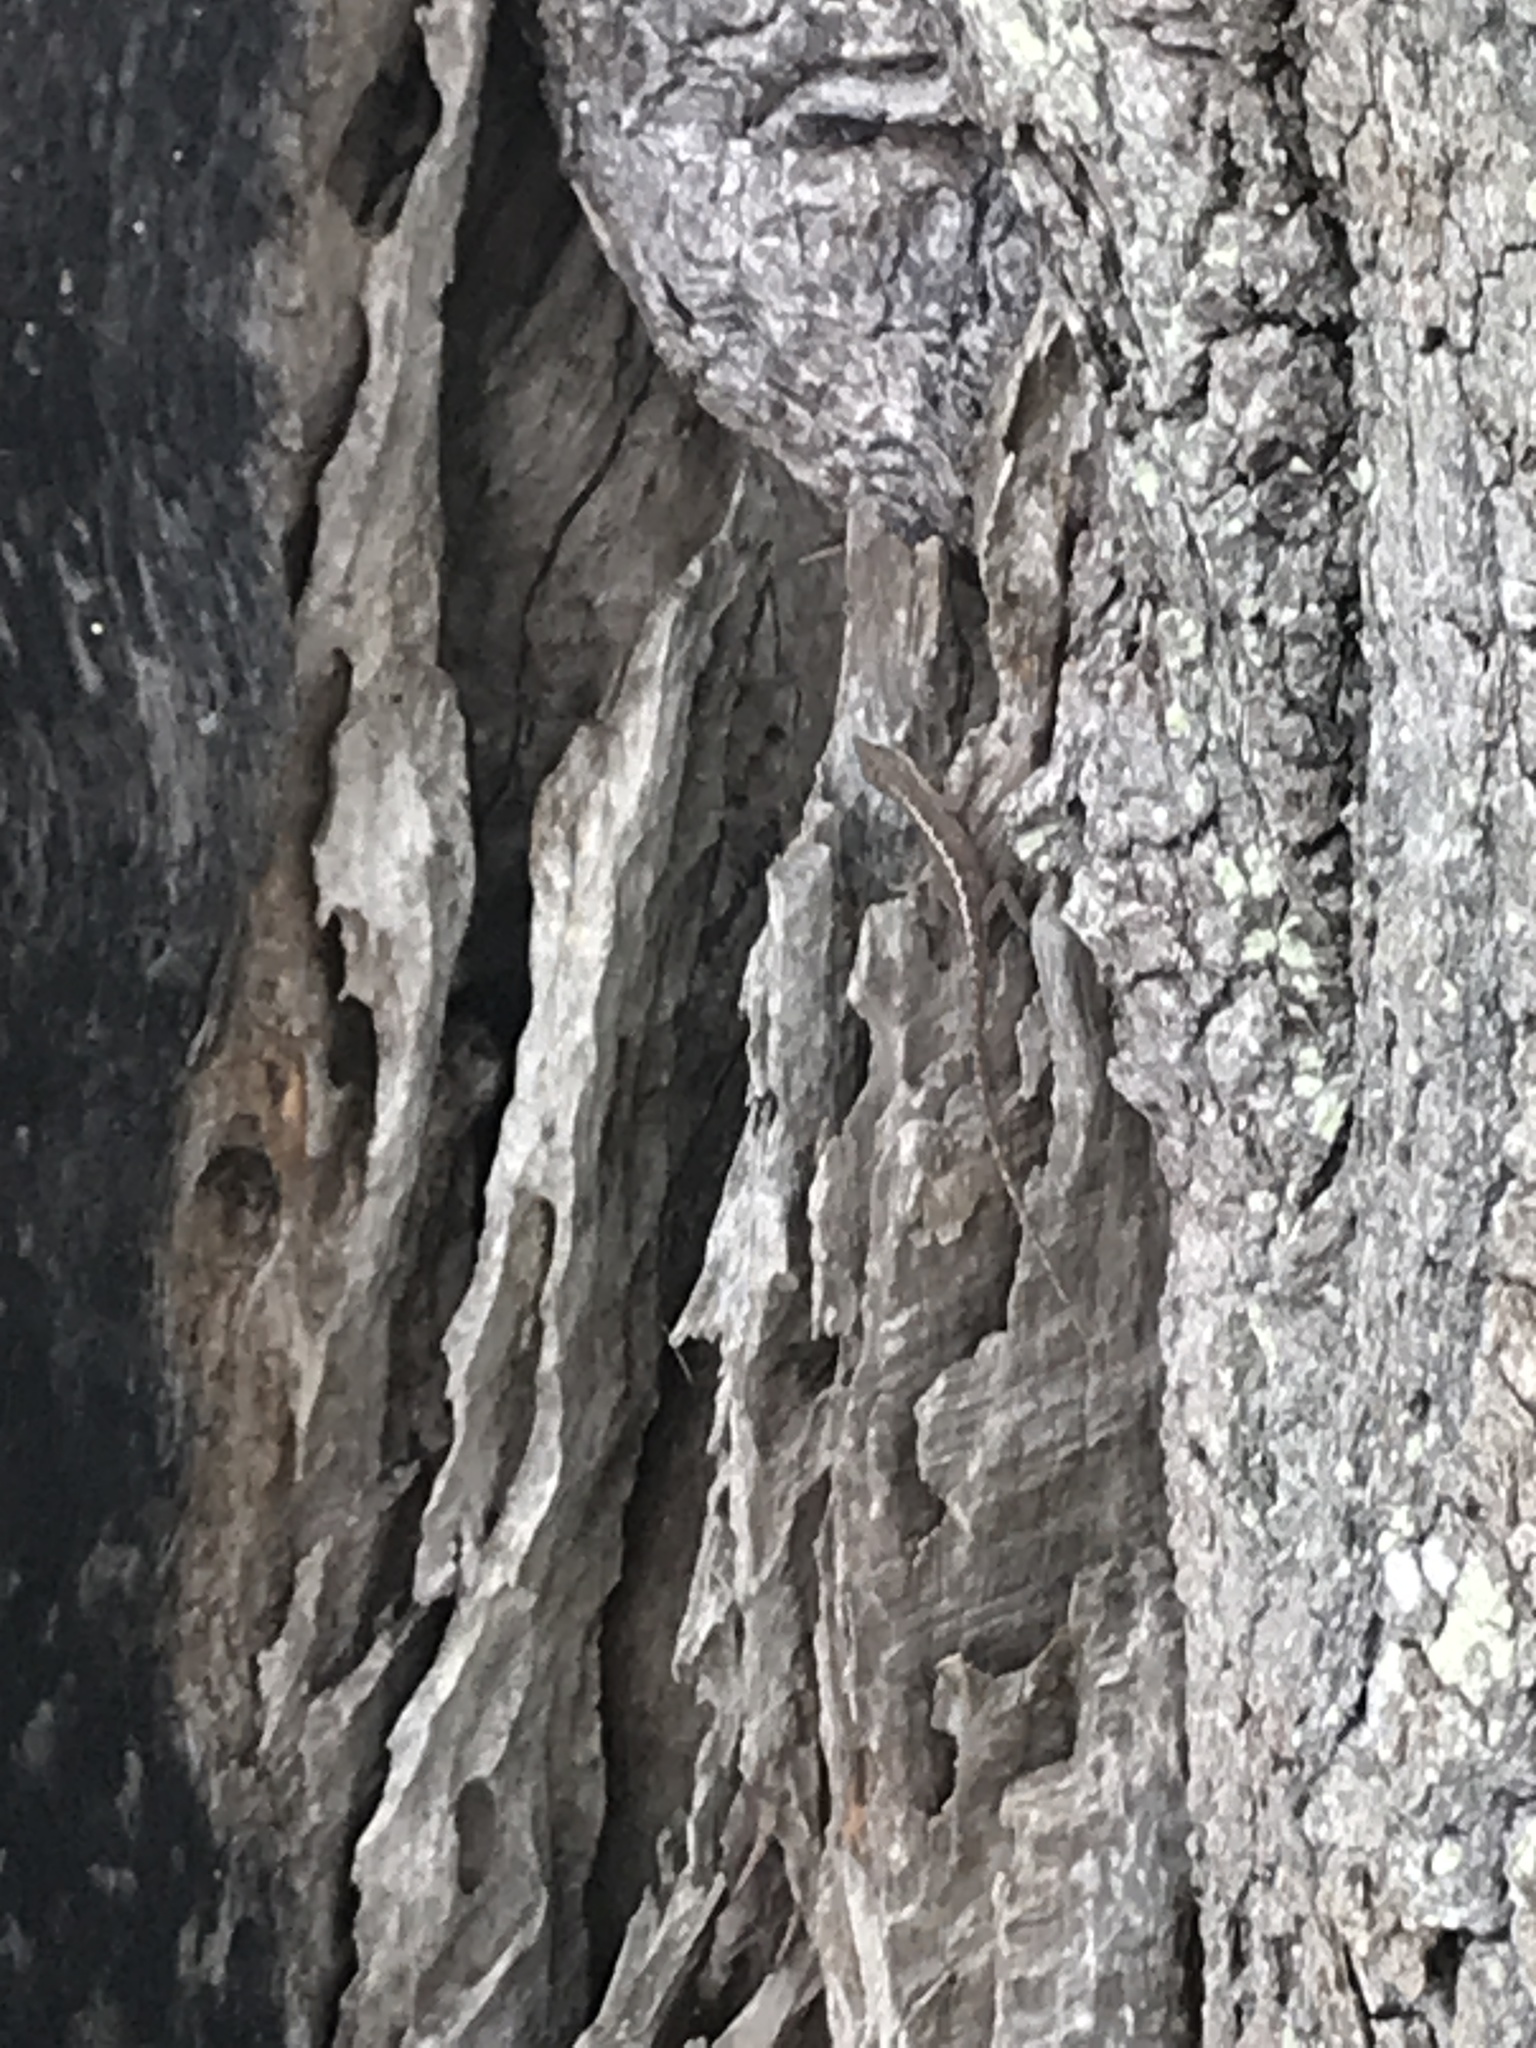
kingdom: Animalia
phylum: Chordata
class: Squamata
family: Dactyloidae
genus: Anolis
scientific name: Anolis carolinensis
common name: Green anole
